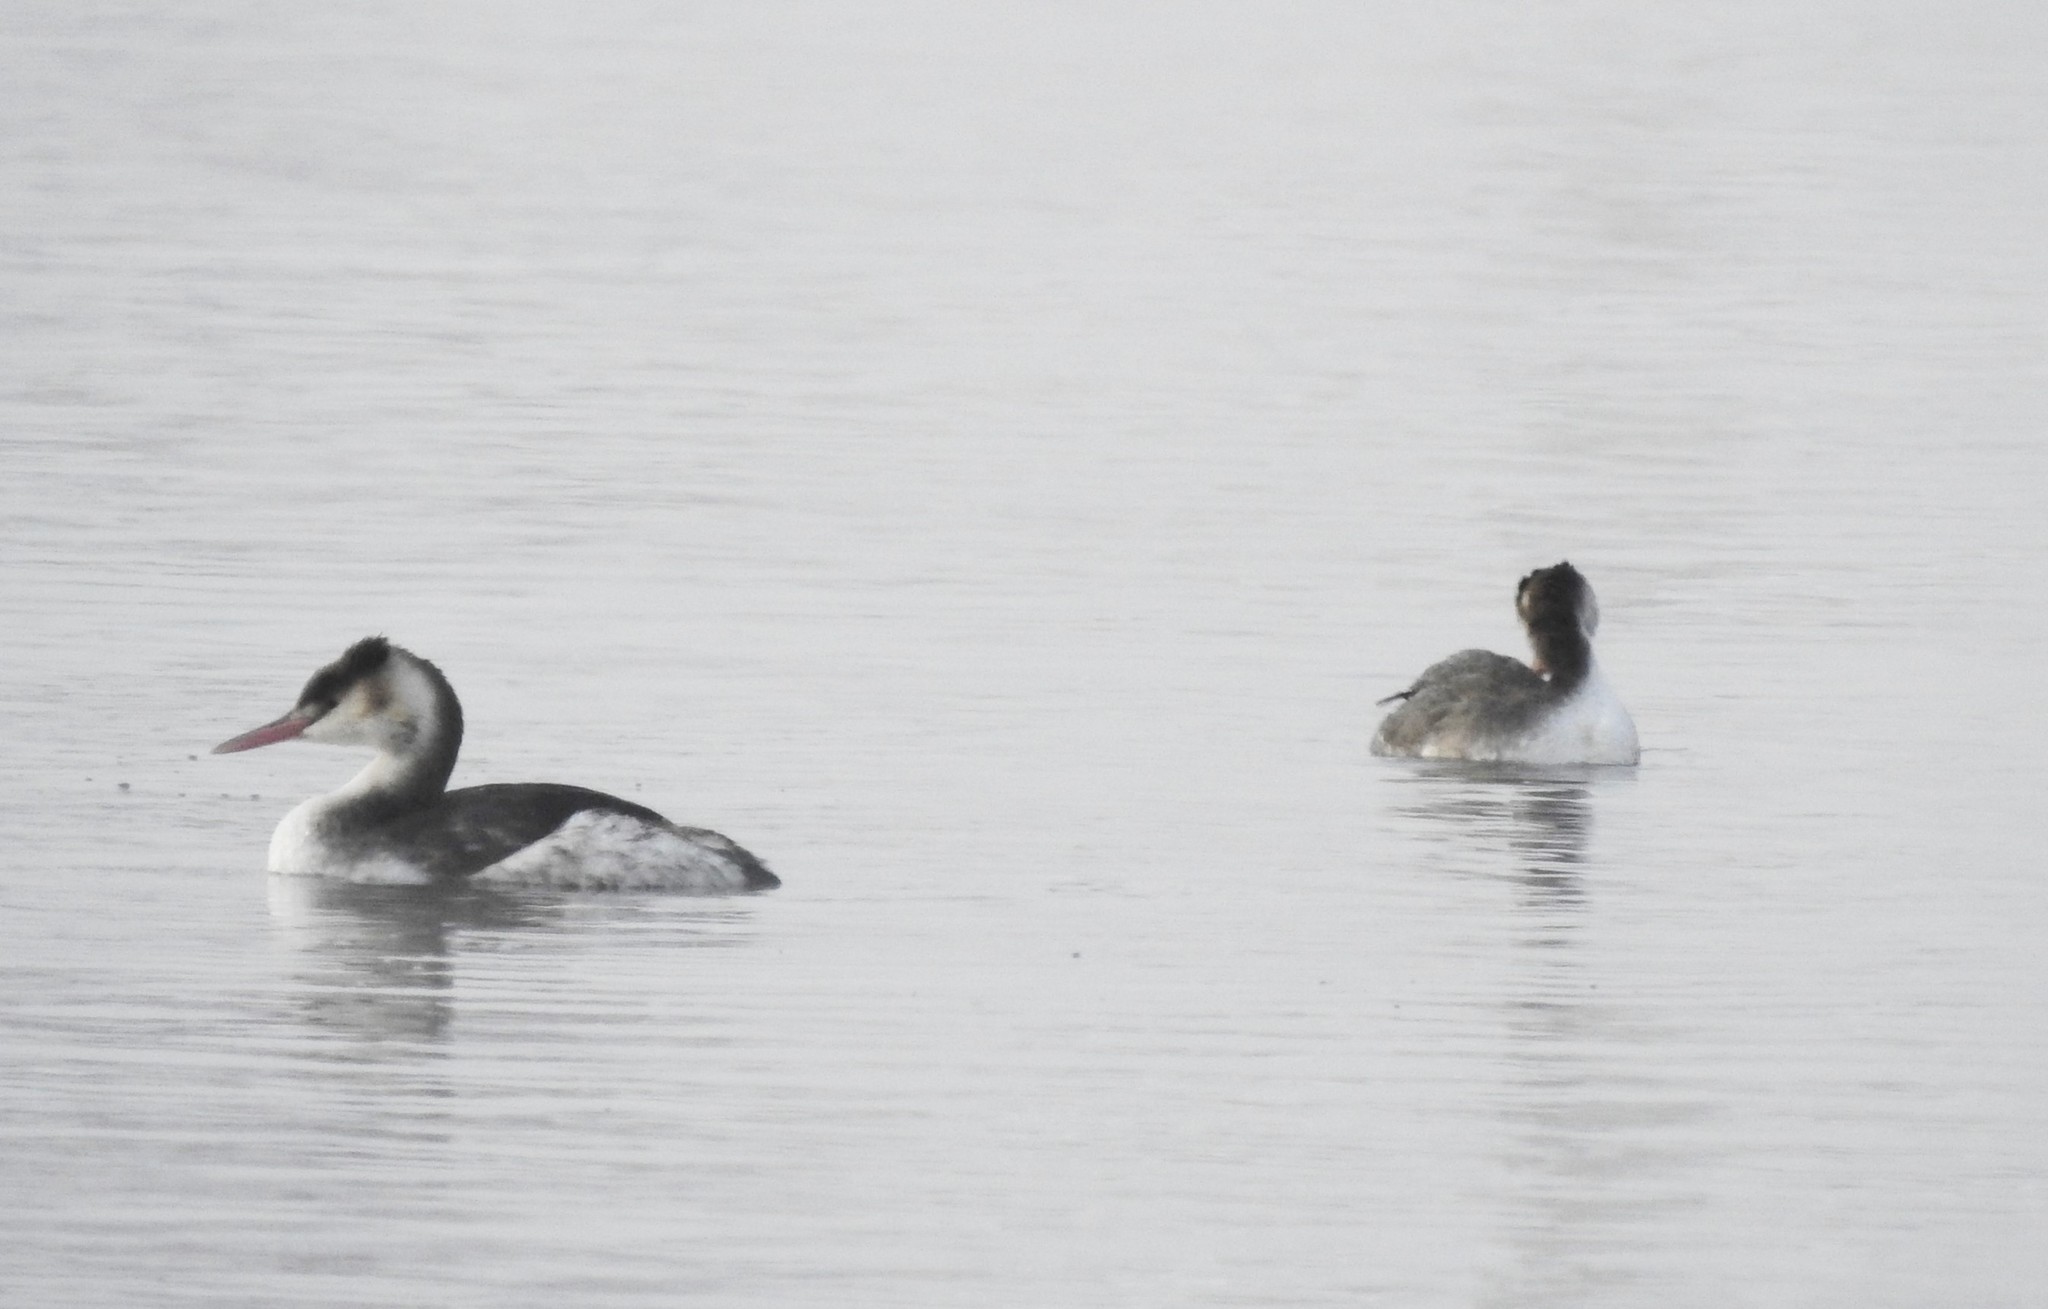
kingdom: Animalia
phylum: Chordata
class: Aves
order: Podicipediformes
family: Podicipedidae
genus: Podiceps
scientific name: Podiceps cristatus
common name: Great crested grebe
